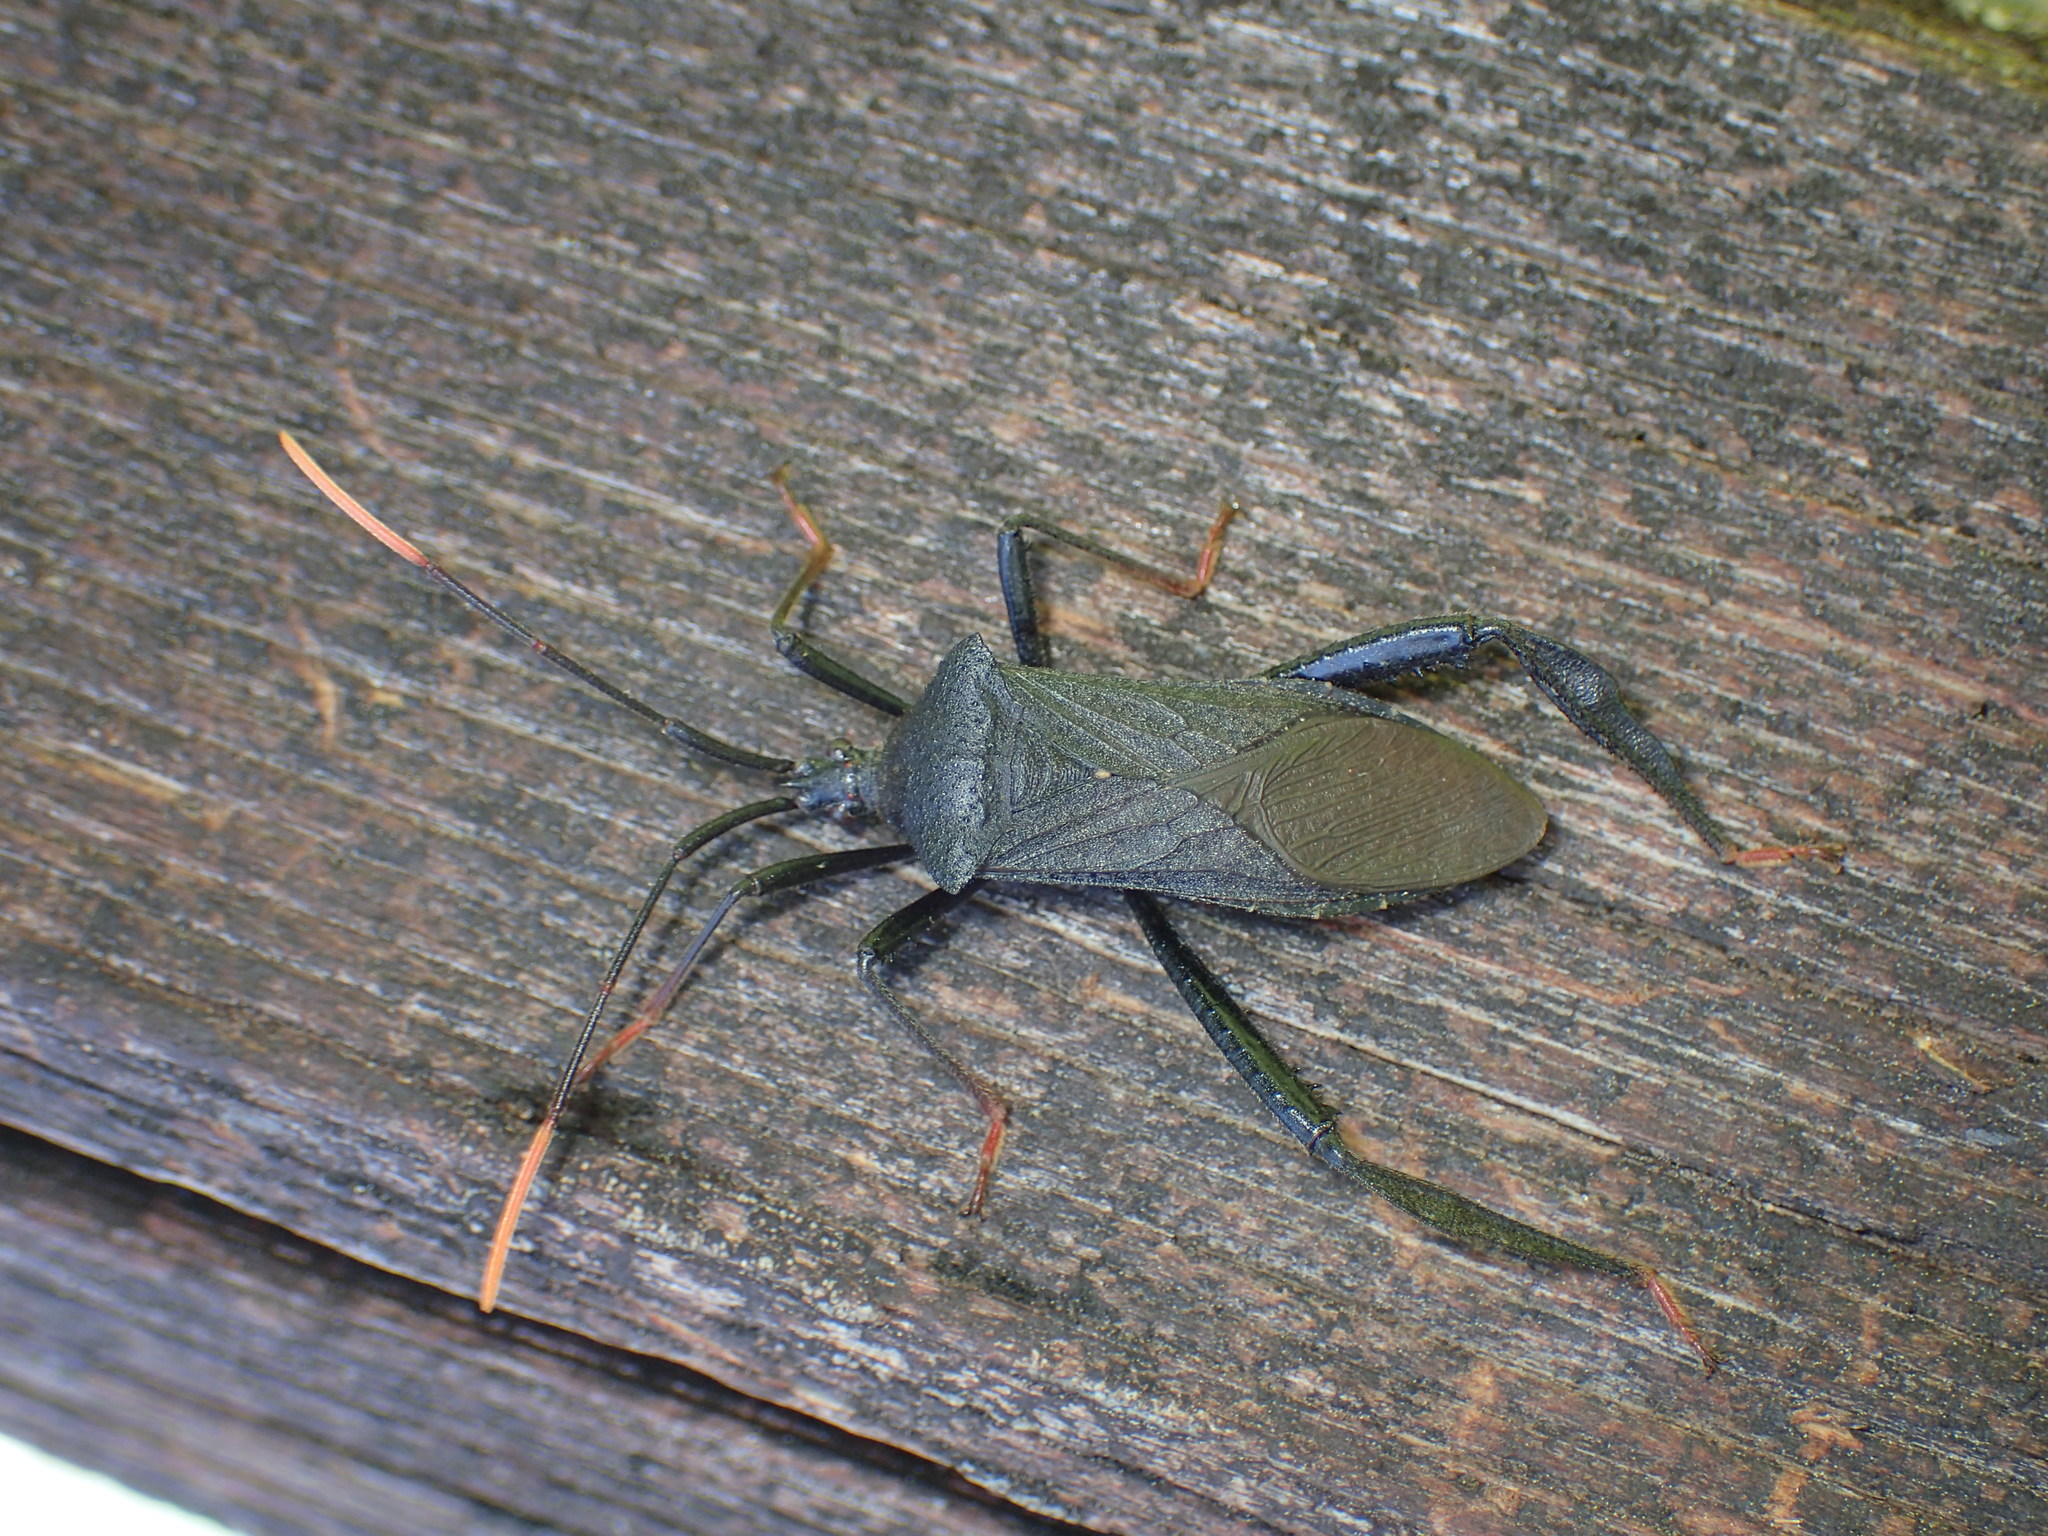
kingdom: Animalia
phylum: Arthropoda
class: Insecta
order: Hemiptera
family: Coreidae
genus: Acanthocephala
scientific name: Acanthocephala terminalis
